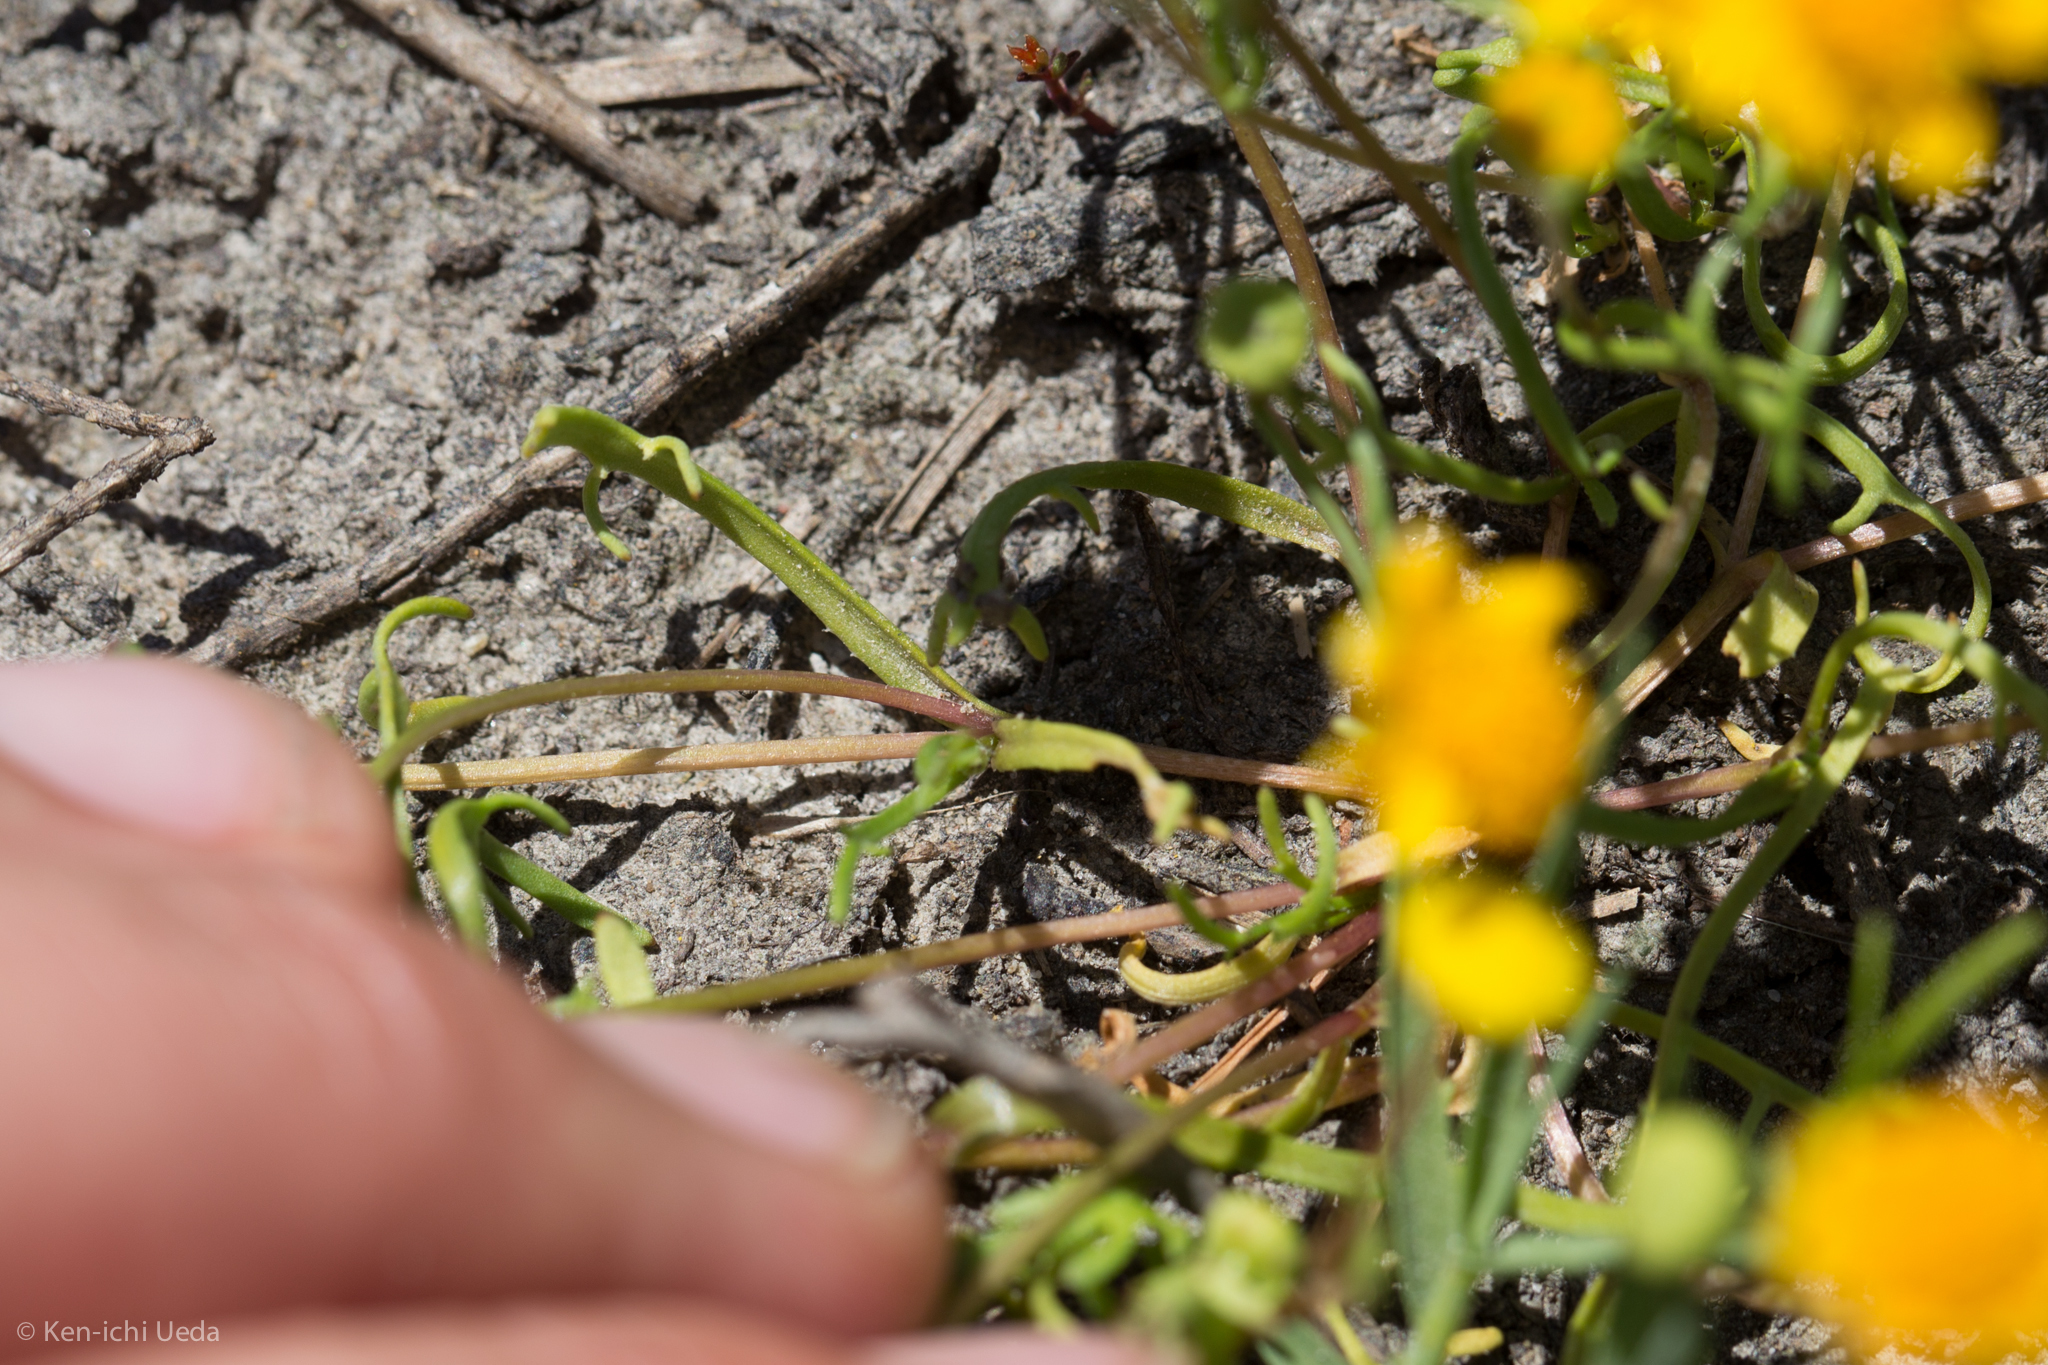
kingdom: Plantae
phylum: Tracheophyta
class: Magnoliopsida
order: Asterales
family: Asteraceae
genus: Lasthenia
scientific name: Lasthenia conjugens
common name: Contra costa goldfields
